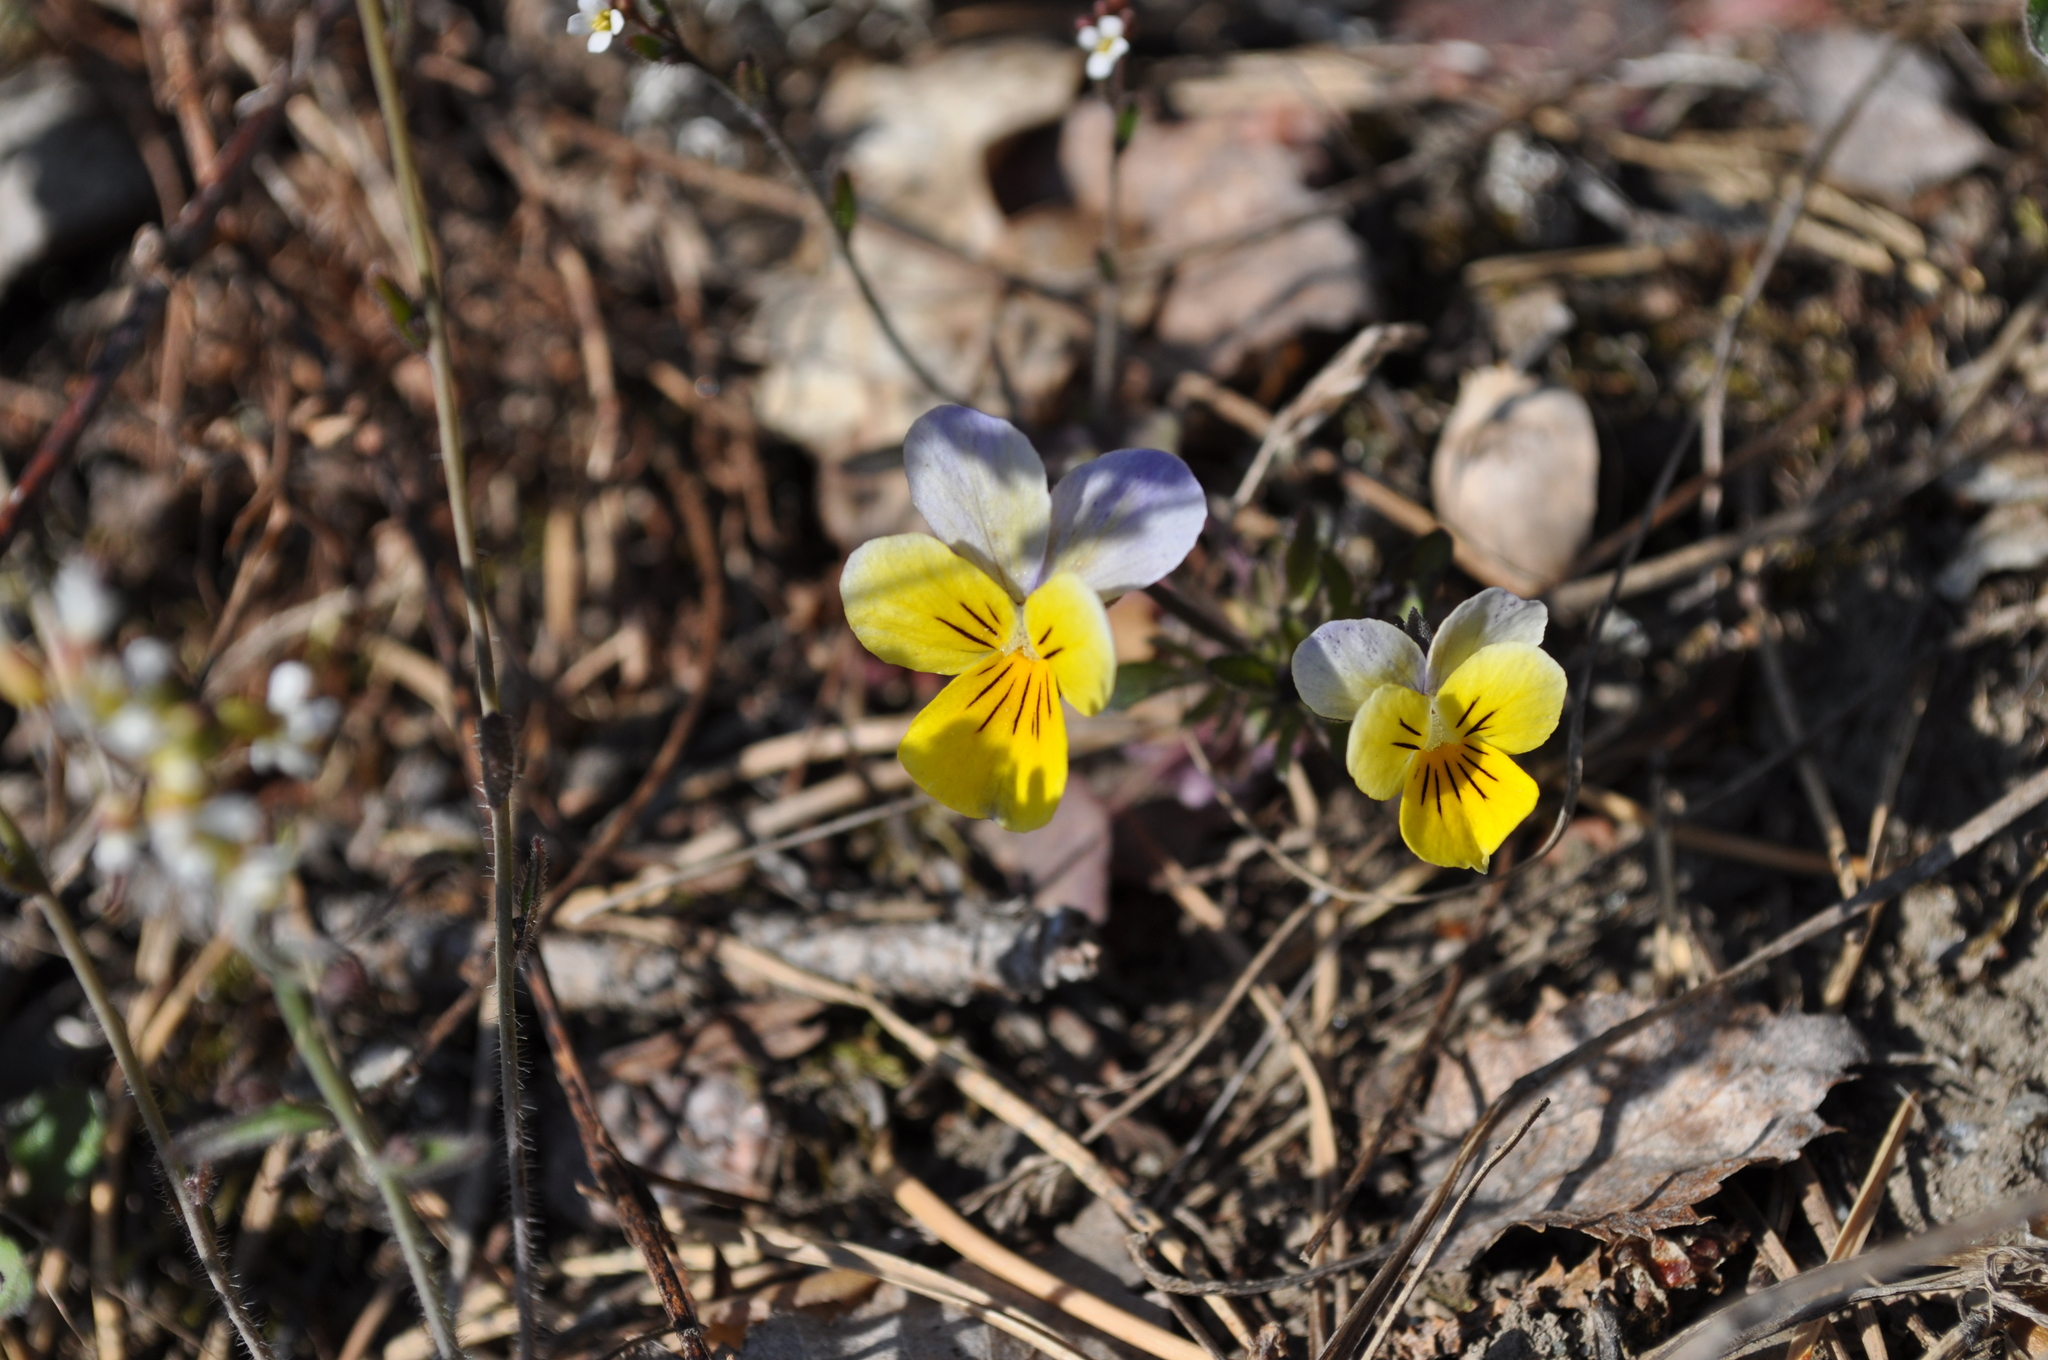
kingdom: Plantae
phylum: Tracheophyta
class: Magnoliopsida
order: Malpighiales
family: Violaceae
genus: Viola
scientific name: Viola tricolor
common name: Pansy
